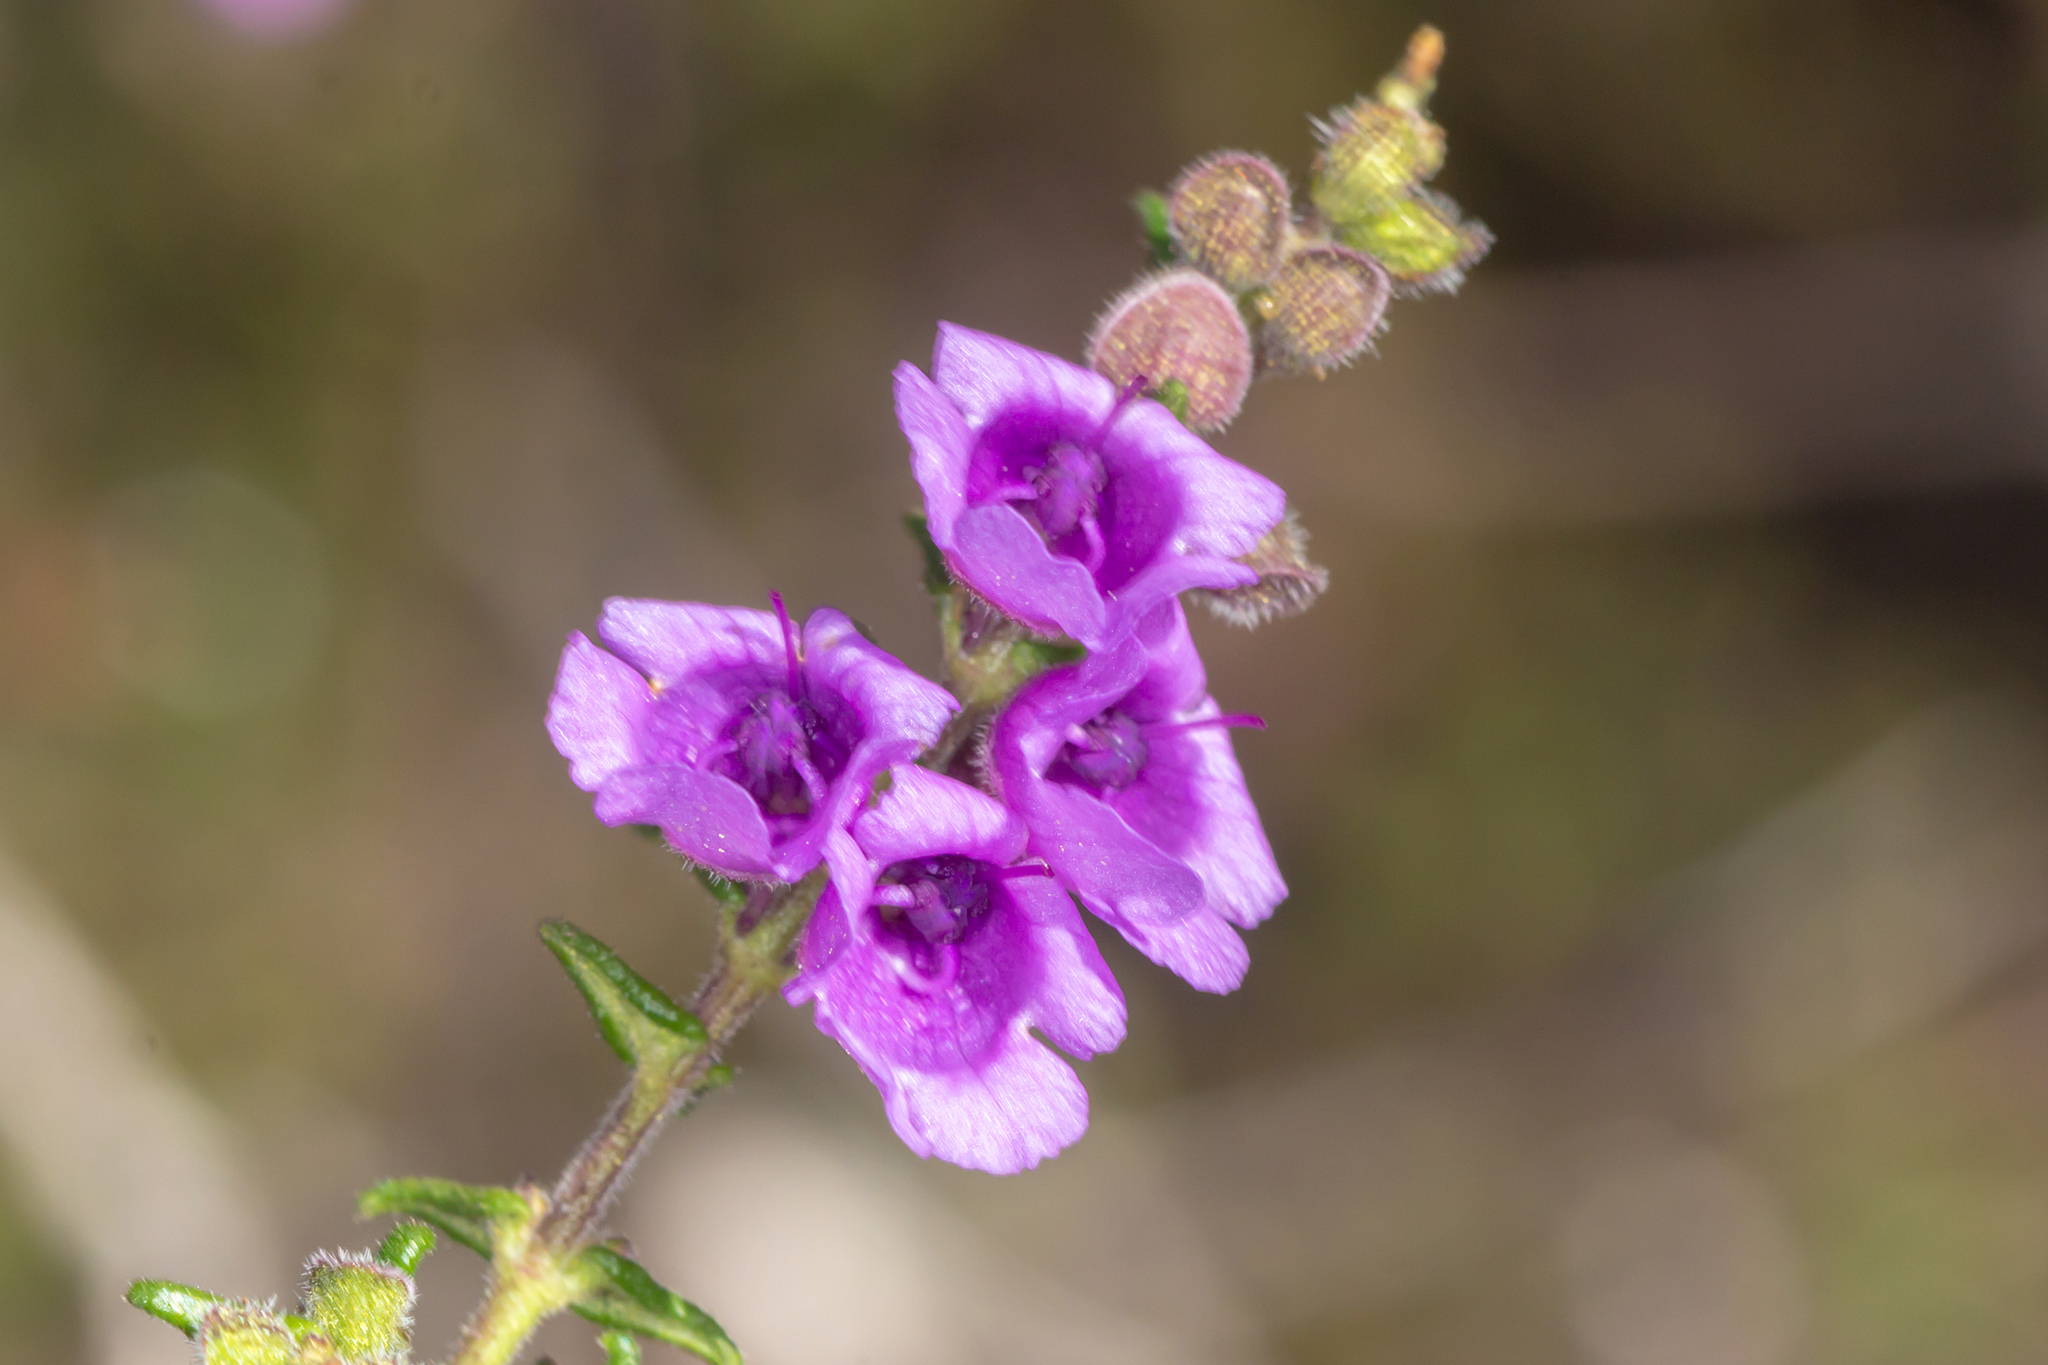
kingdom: Plantae
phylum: Tracheophyta
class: Magnoliopsida
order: Lamiales
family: Lamiaceae
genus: Prostanthera
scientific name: Prostanthera decussata
